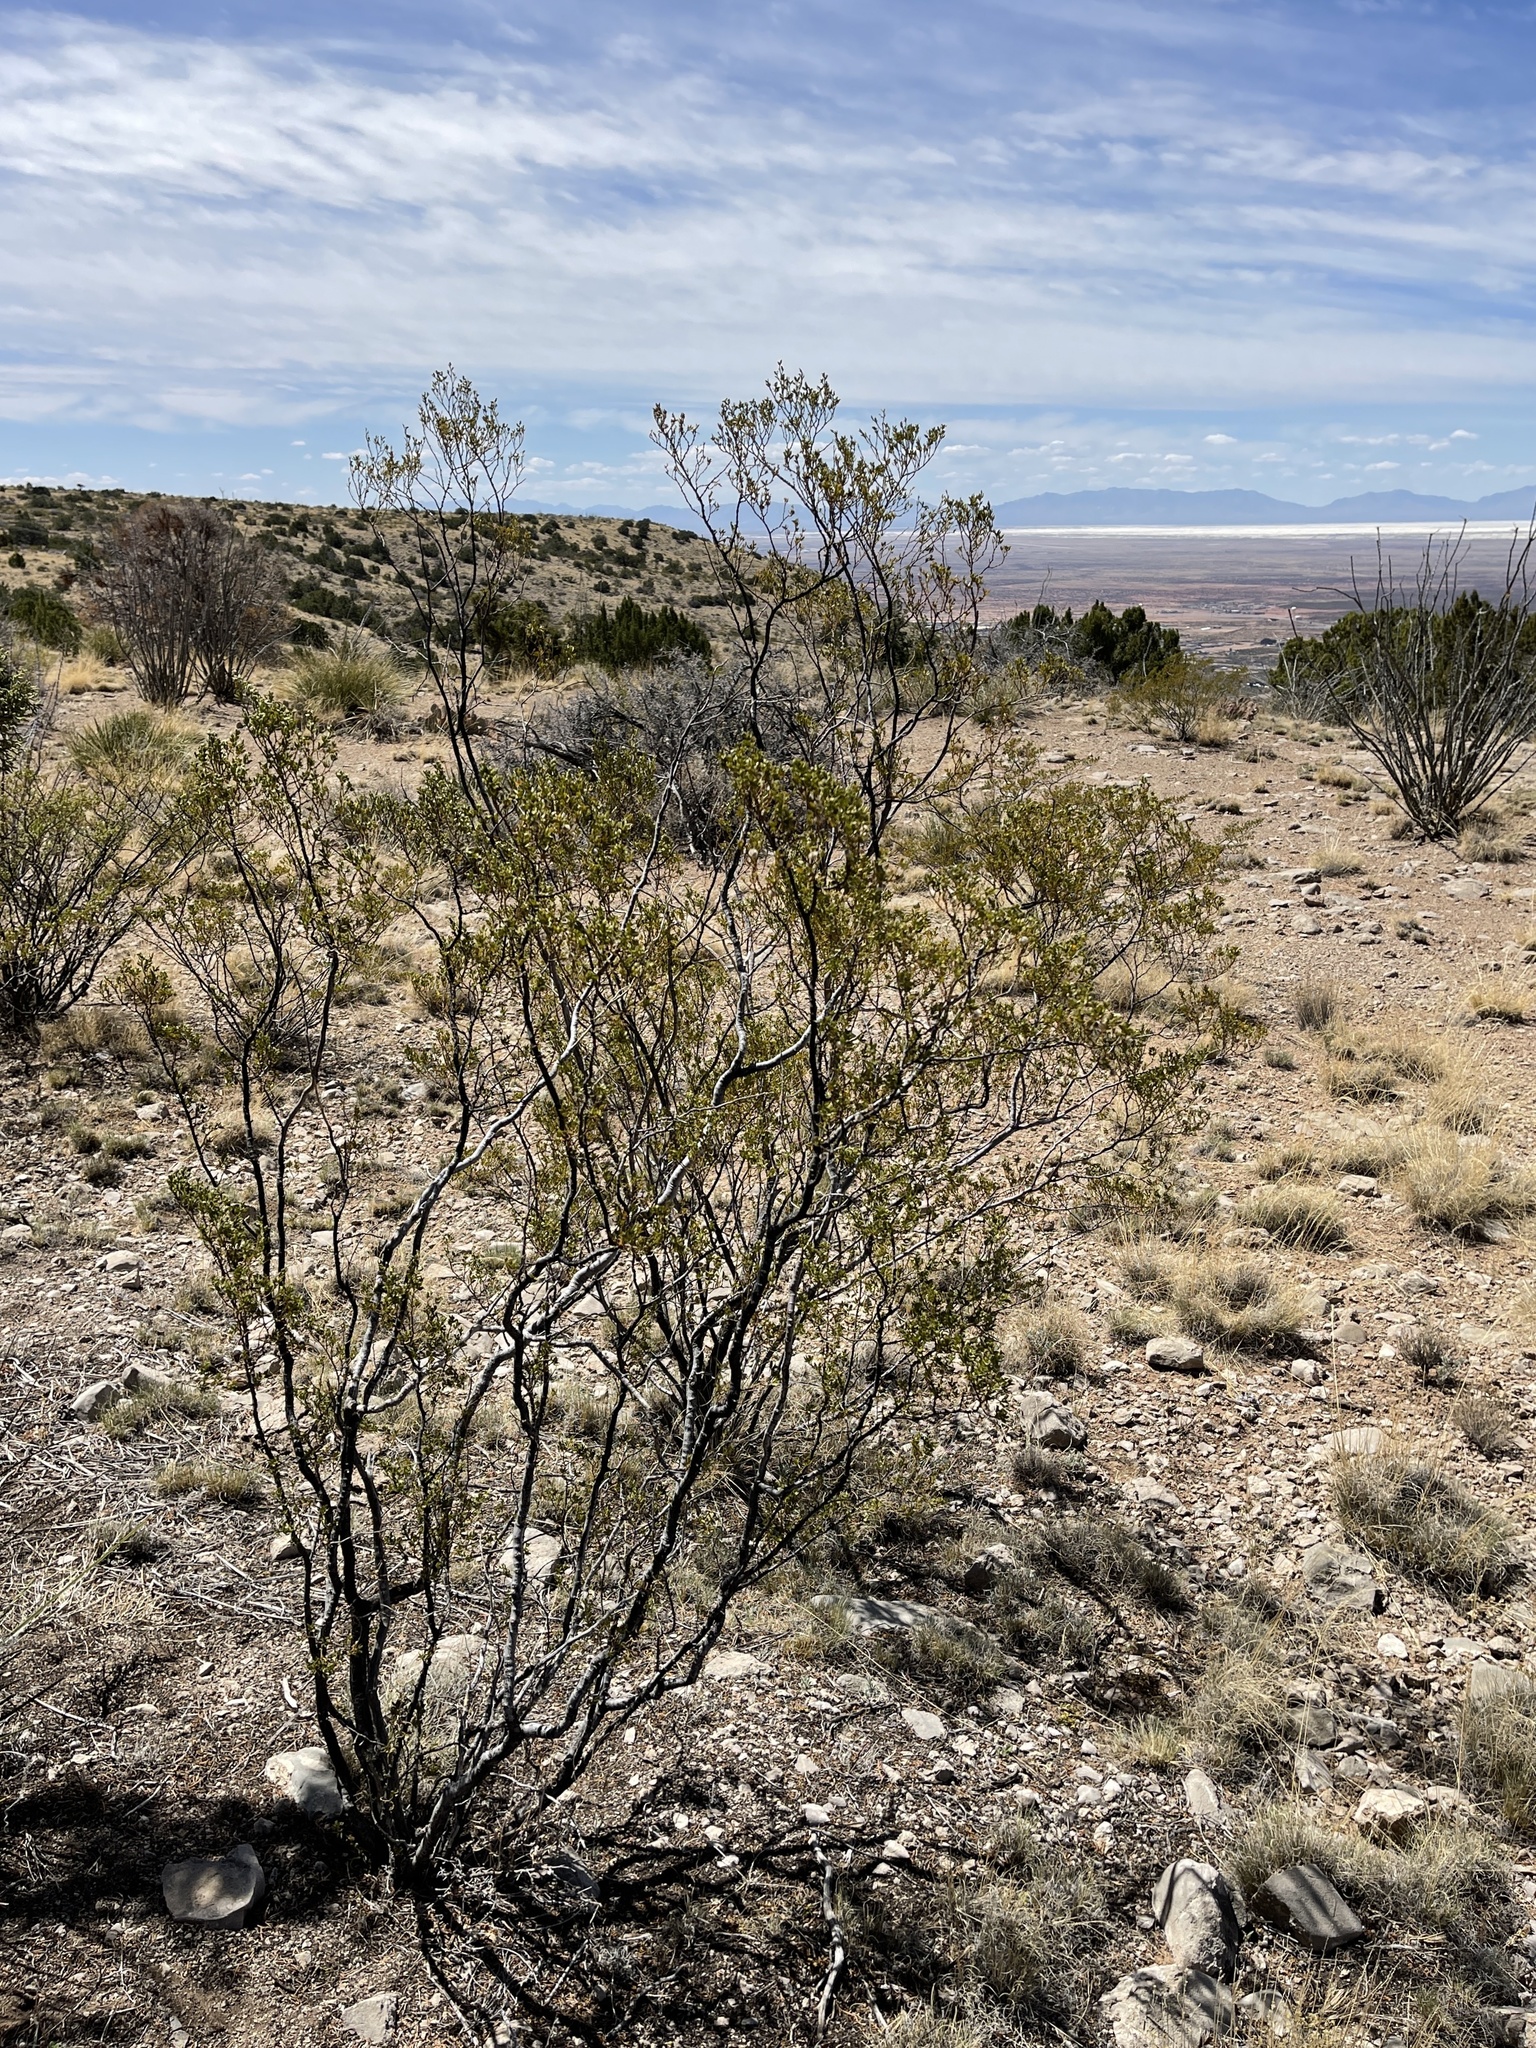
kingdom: Plantae
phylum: Tracheophyta
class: Magnoliopsida
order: Zygophyllales
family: Zygophyllaceae
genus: Larrea
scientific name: Larrea tridentata
